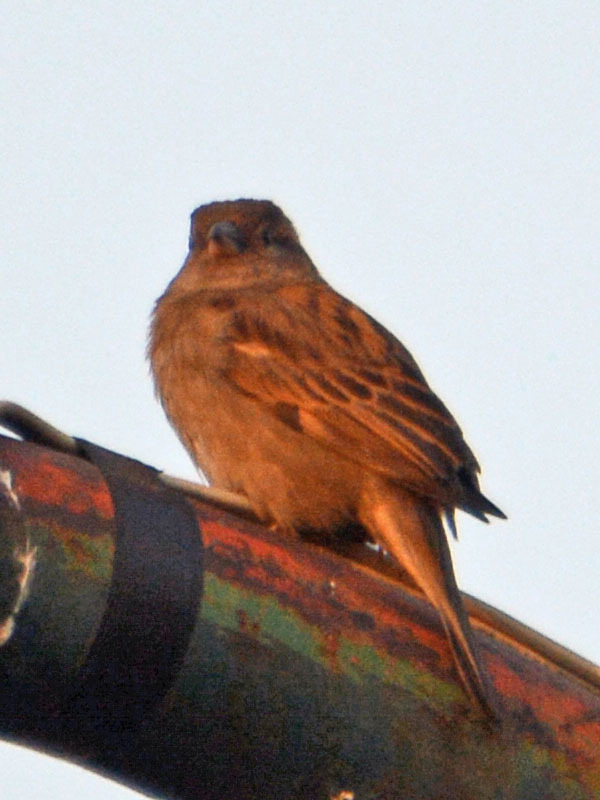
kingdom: Animalia
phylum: Chordata
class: Aves
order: Passeriformes
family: Passeridae
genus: Passer
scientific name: Passer domesticus
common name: House sparrow
